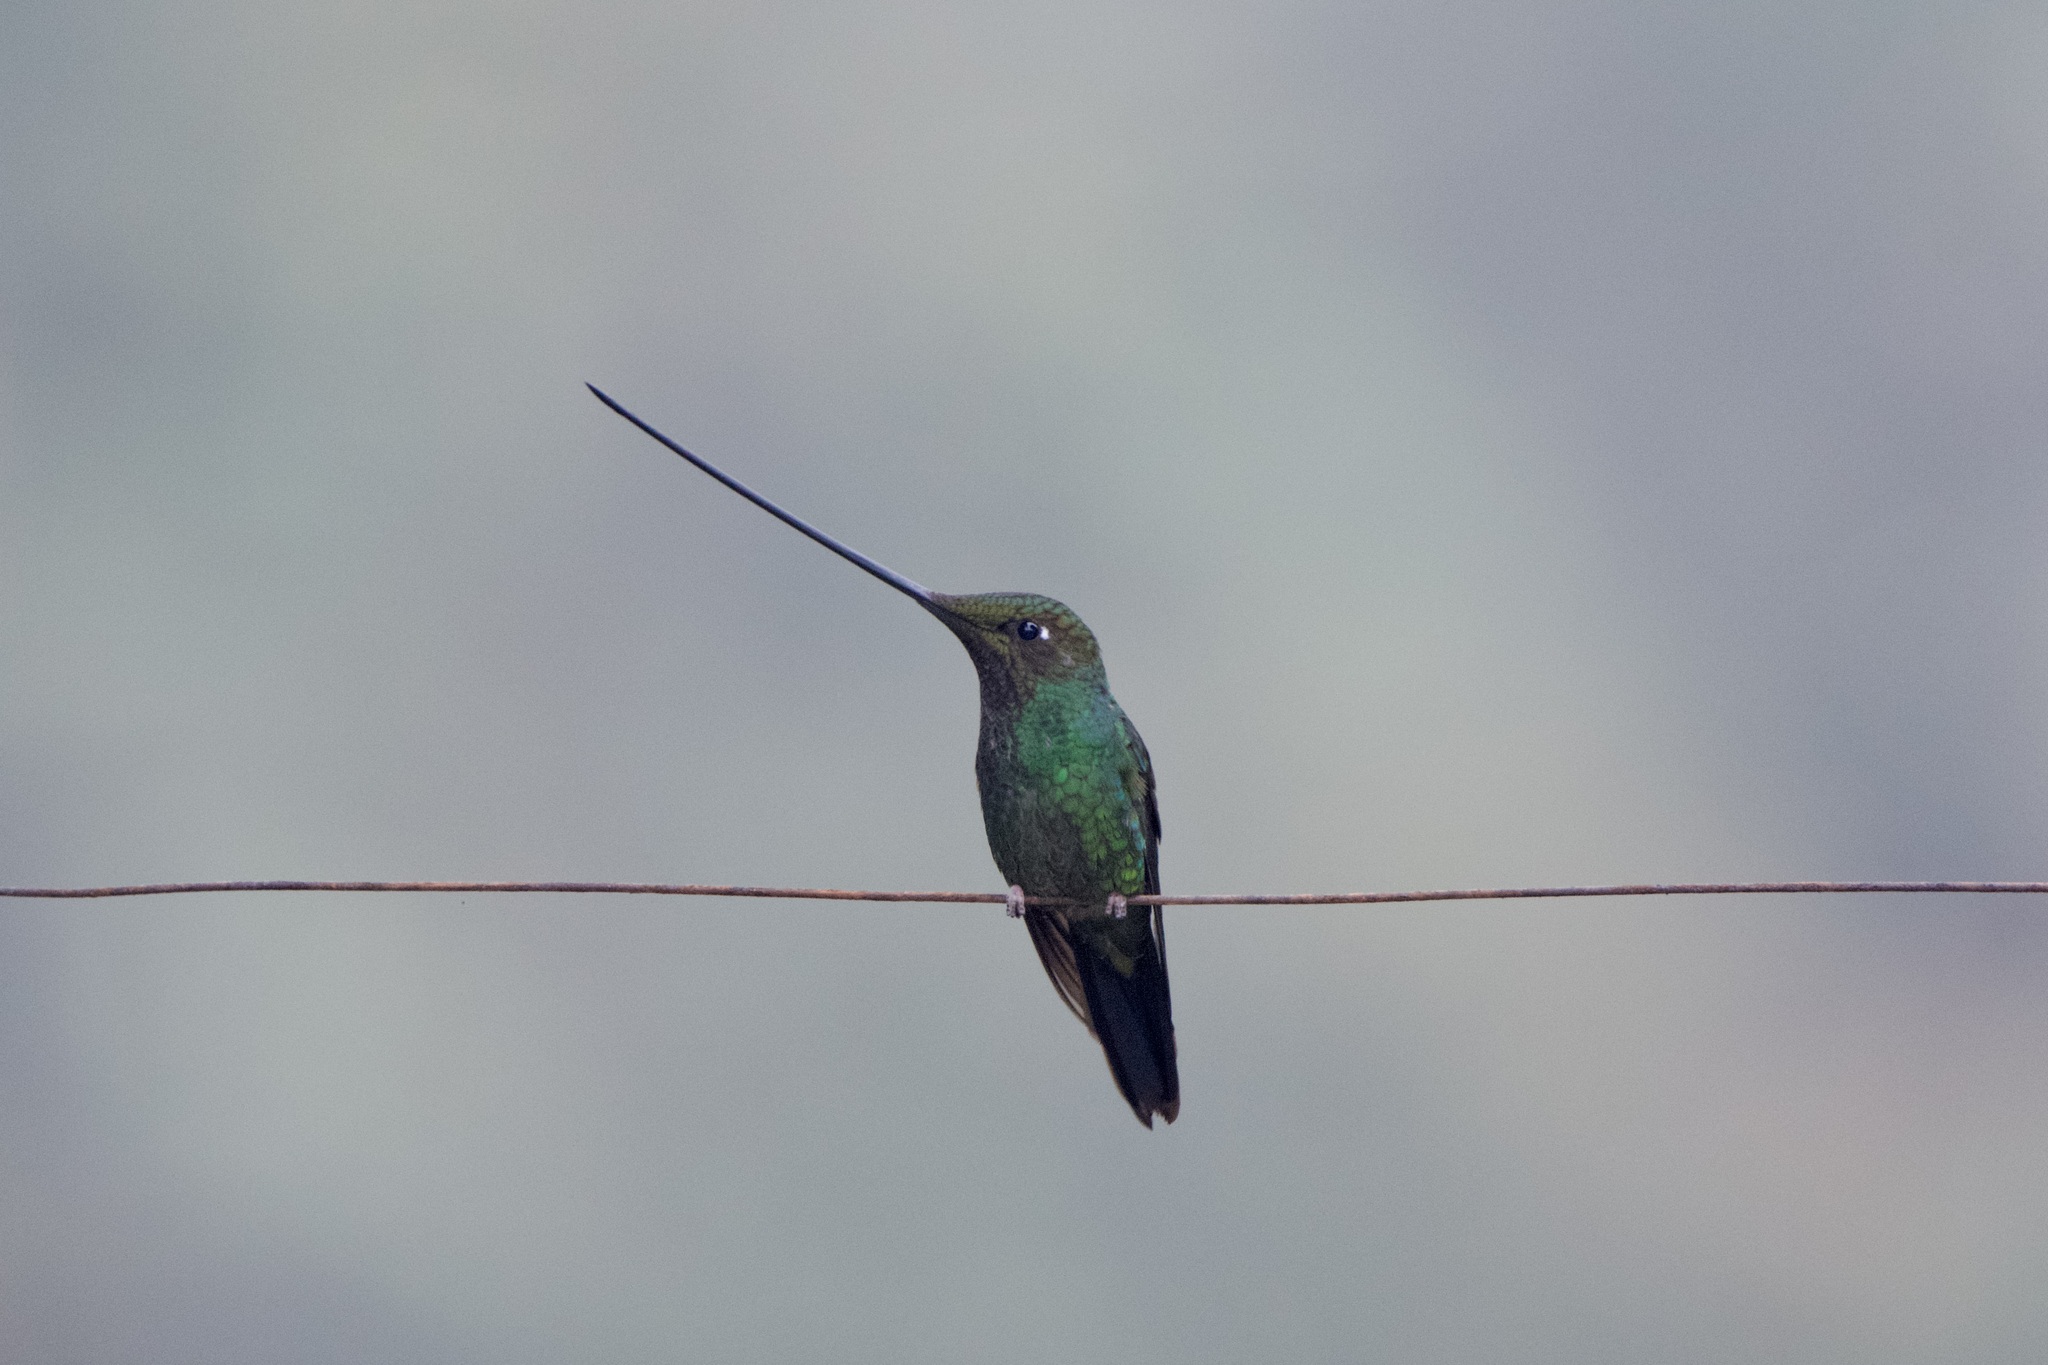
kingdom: Animalia
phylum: Chordata
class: Aves
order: Apodiformes
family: Trochilidae
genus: Ensifera
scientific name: Ensifera ensifera
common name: Sword-billed hummingbird
